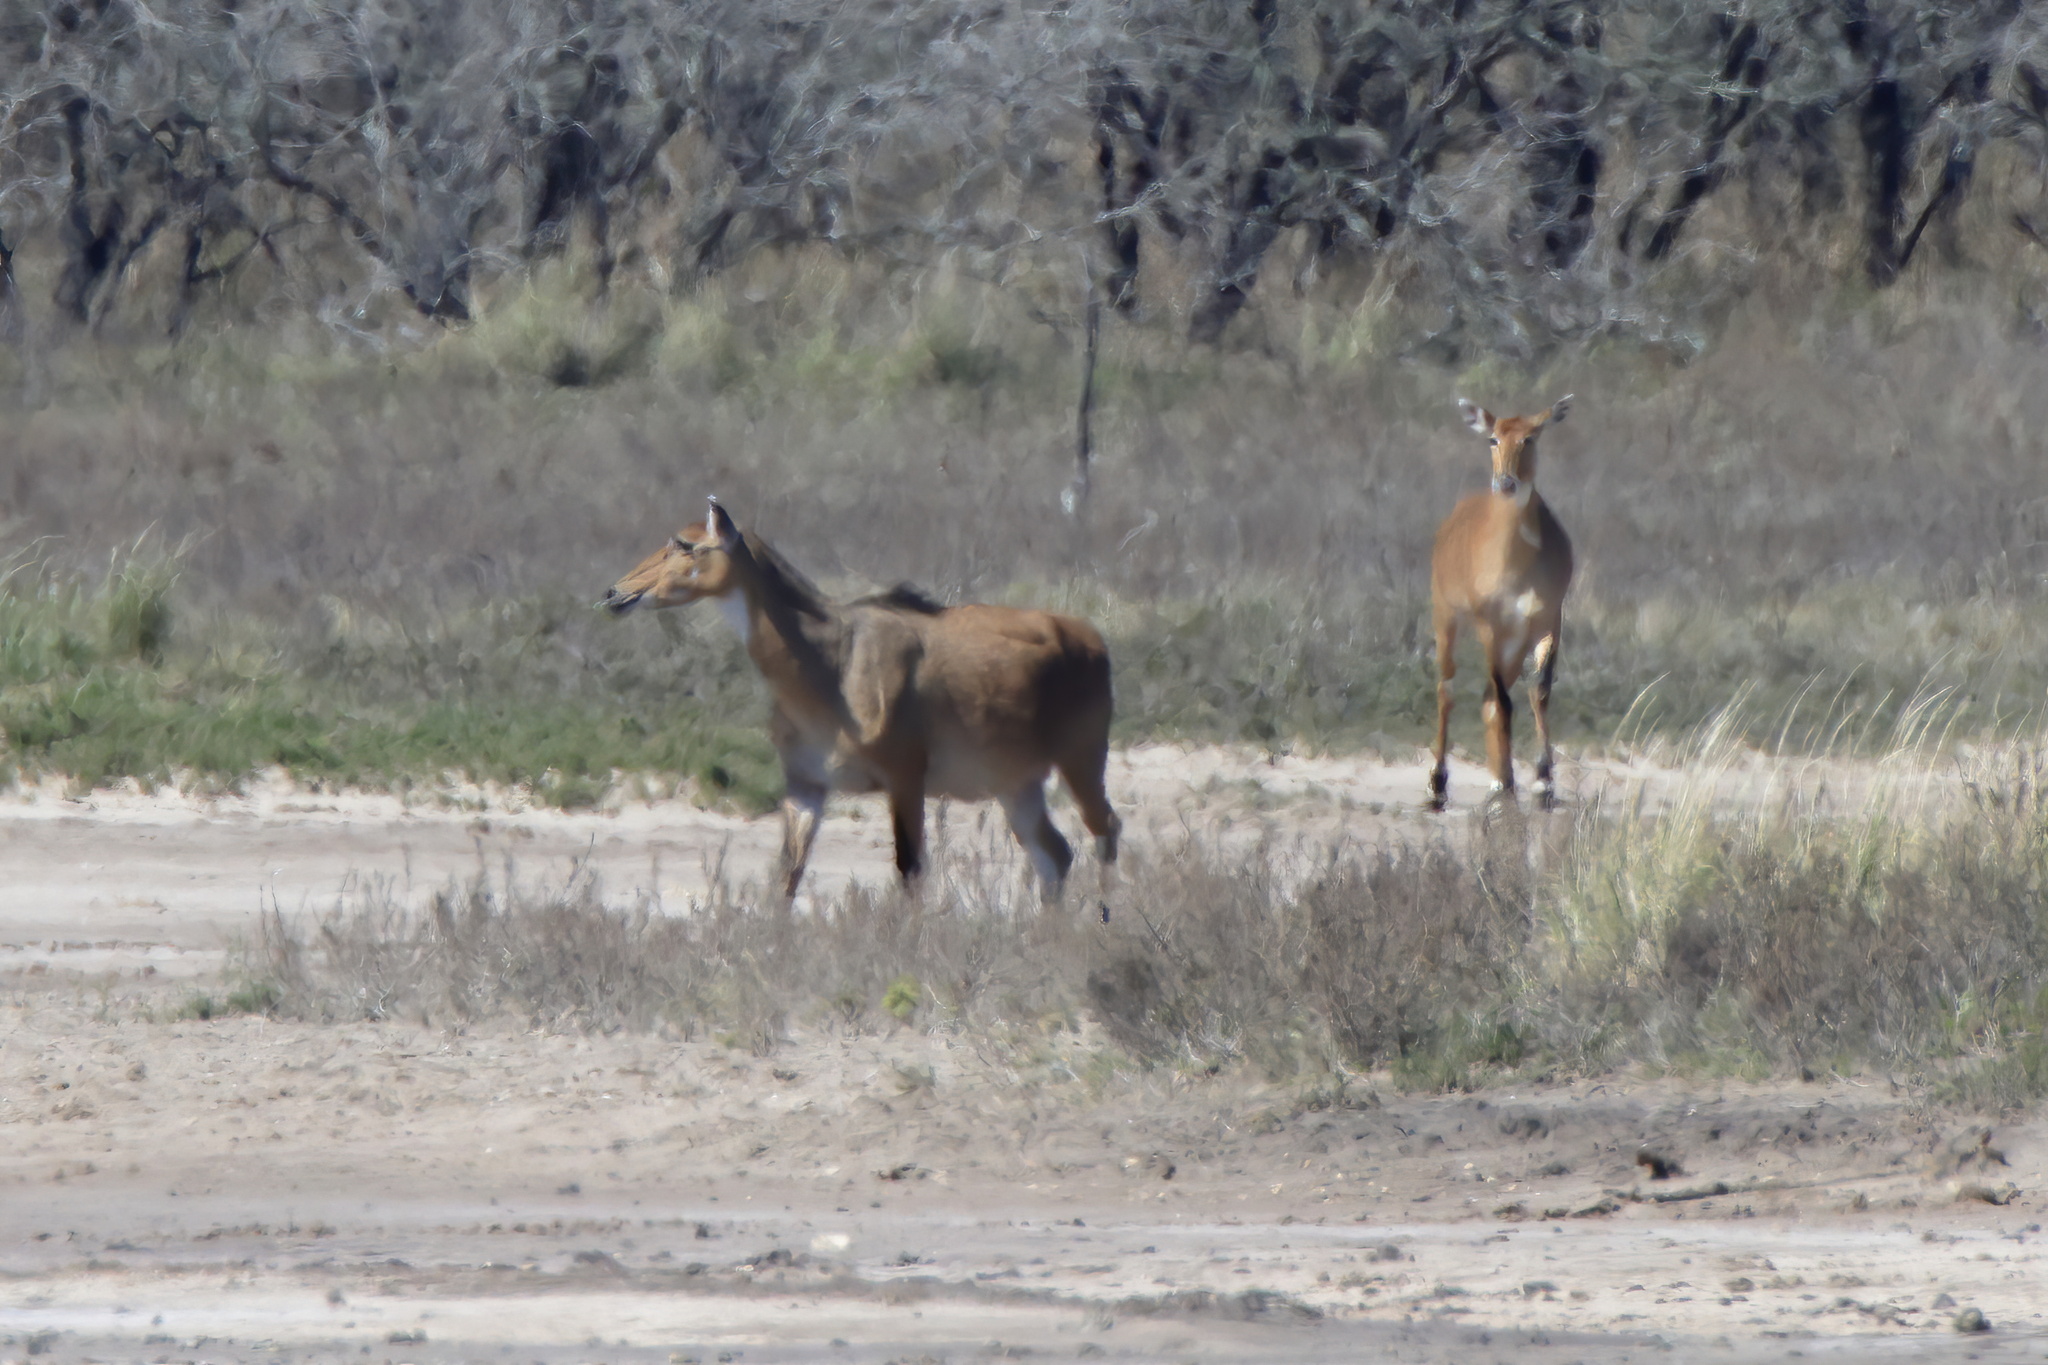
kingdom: Animalia
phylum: Chordata
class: Mammalia
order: Artiodactyla
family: Bovidae
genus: Boselaphus
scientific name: Boselaphus tragocamelus
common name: Nilgai
